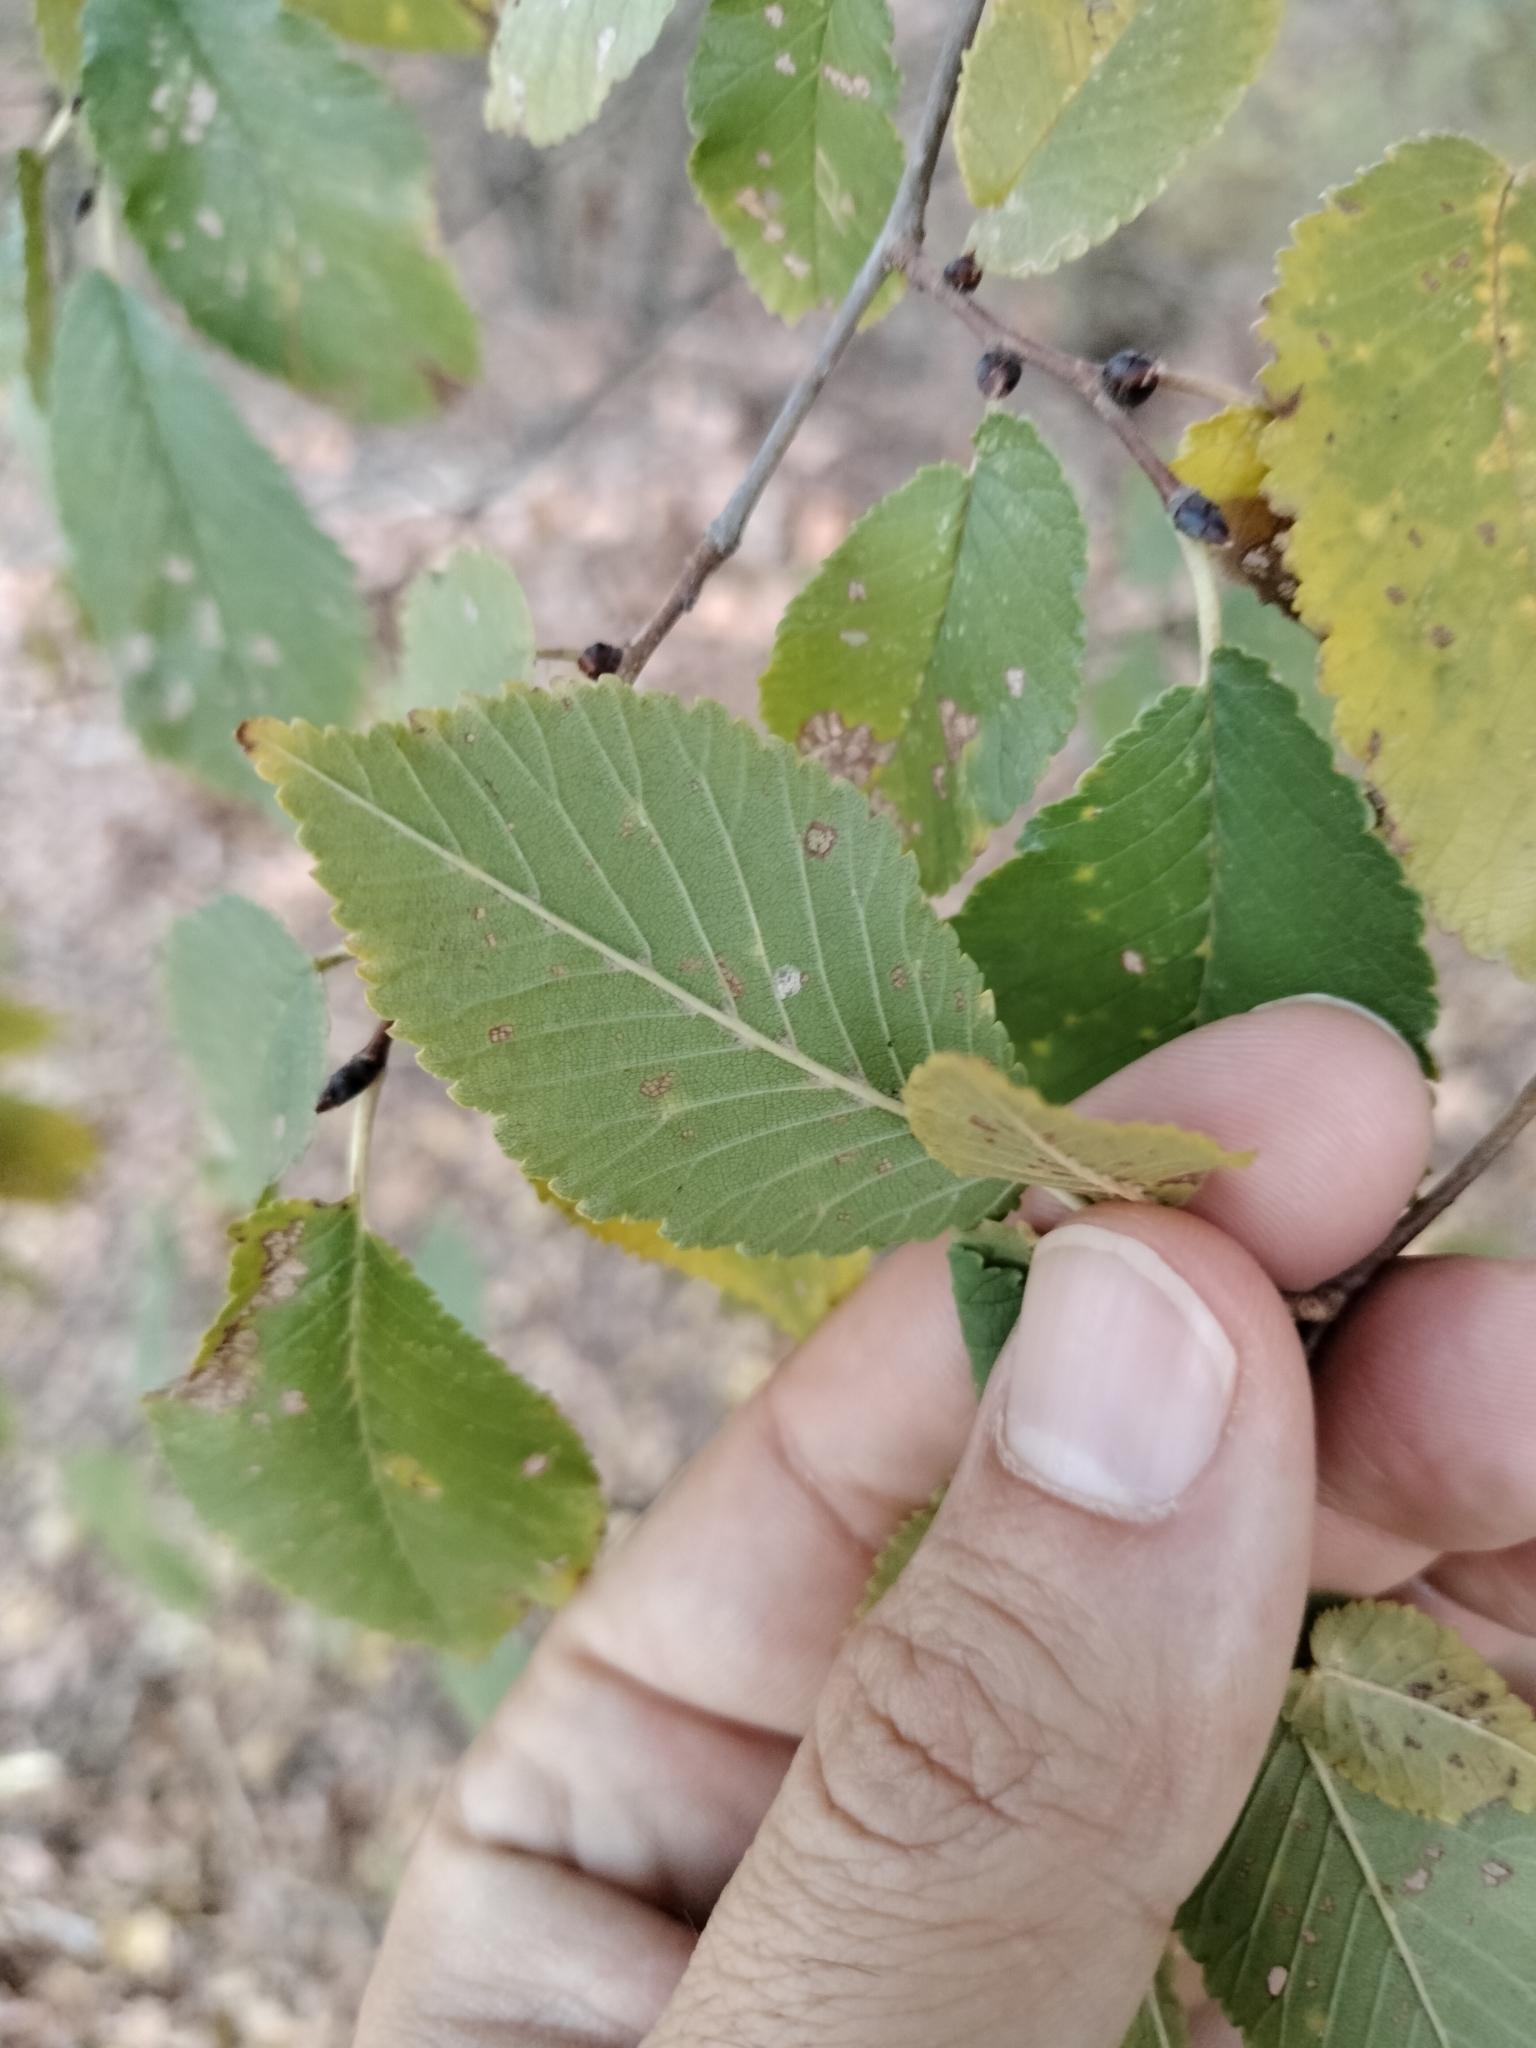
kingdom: Plantae
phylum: Tracheophyta
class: Magnoliopsida
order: Rosales
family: Ulmaceae
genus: Ulmus
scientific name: Ulmus minor
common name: Small-leaved elm
